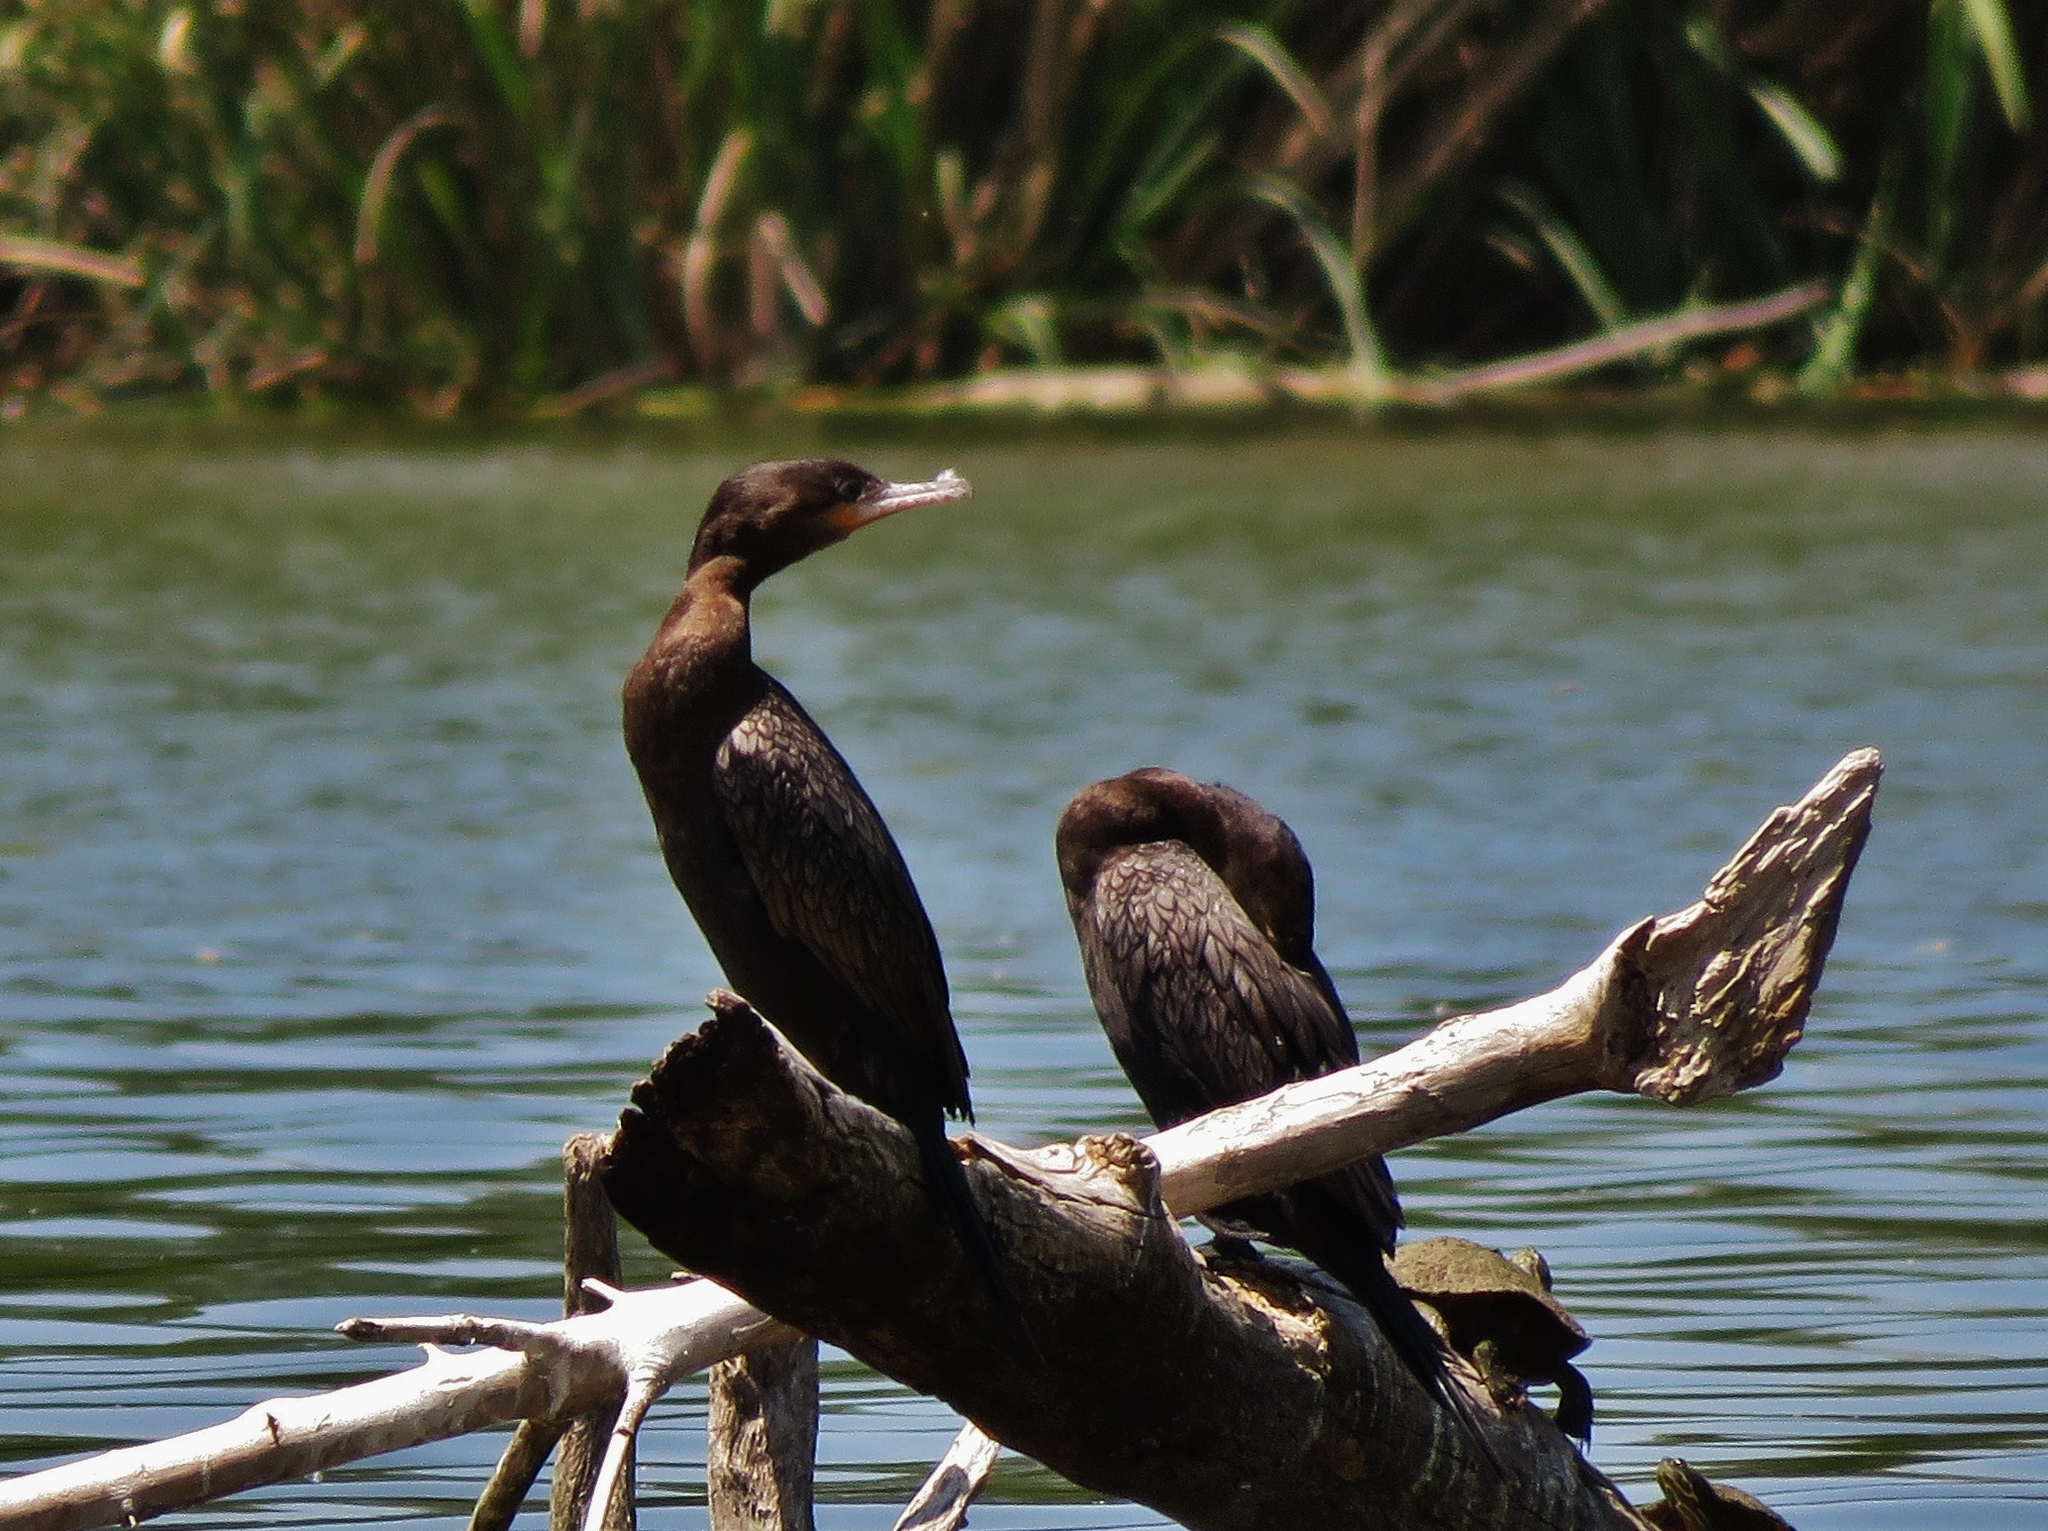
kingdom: Animalia
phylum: Chordata
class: Aves
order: Suliformes
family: Phalacrocoracidae
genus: Phalacrocorax
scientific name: Phalacrocorax brasilianus
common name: Neotropic cormorant
